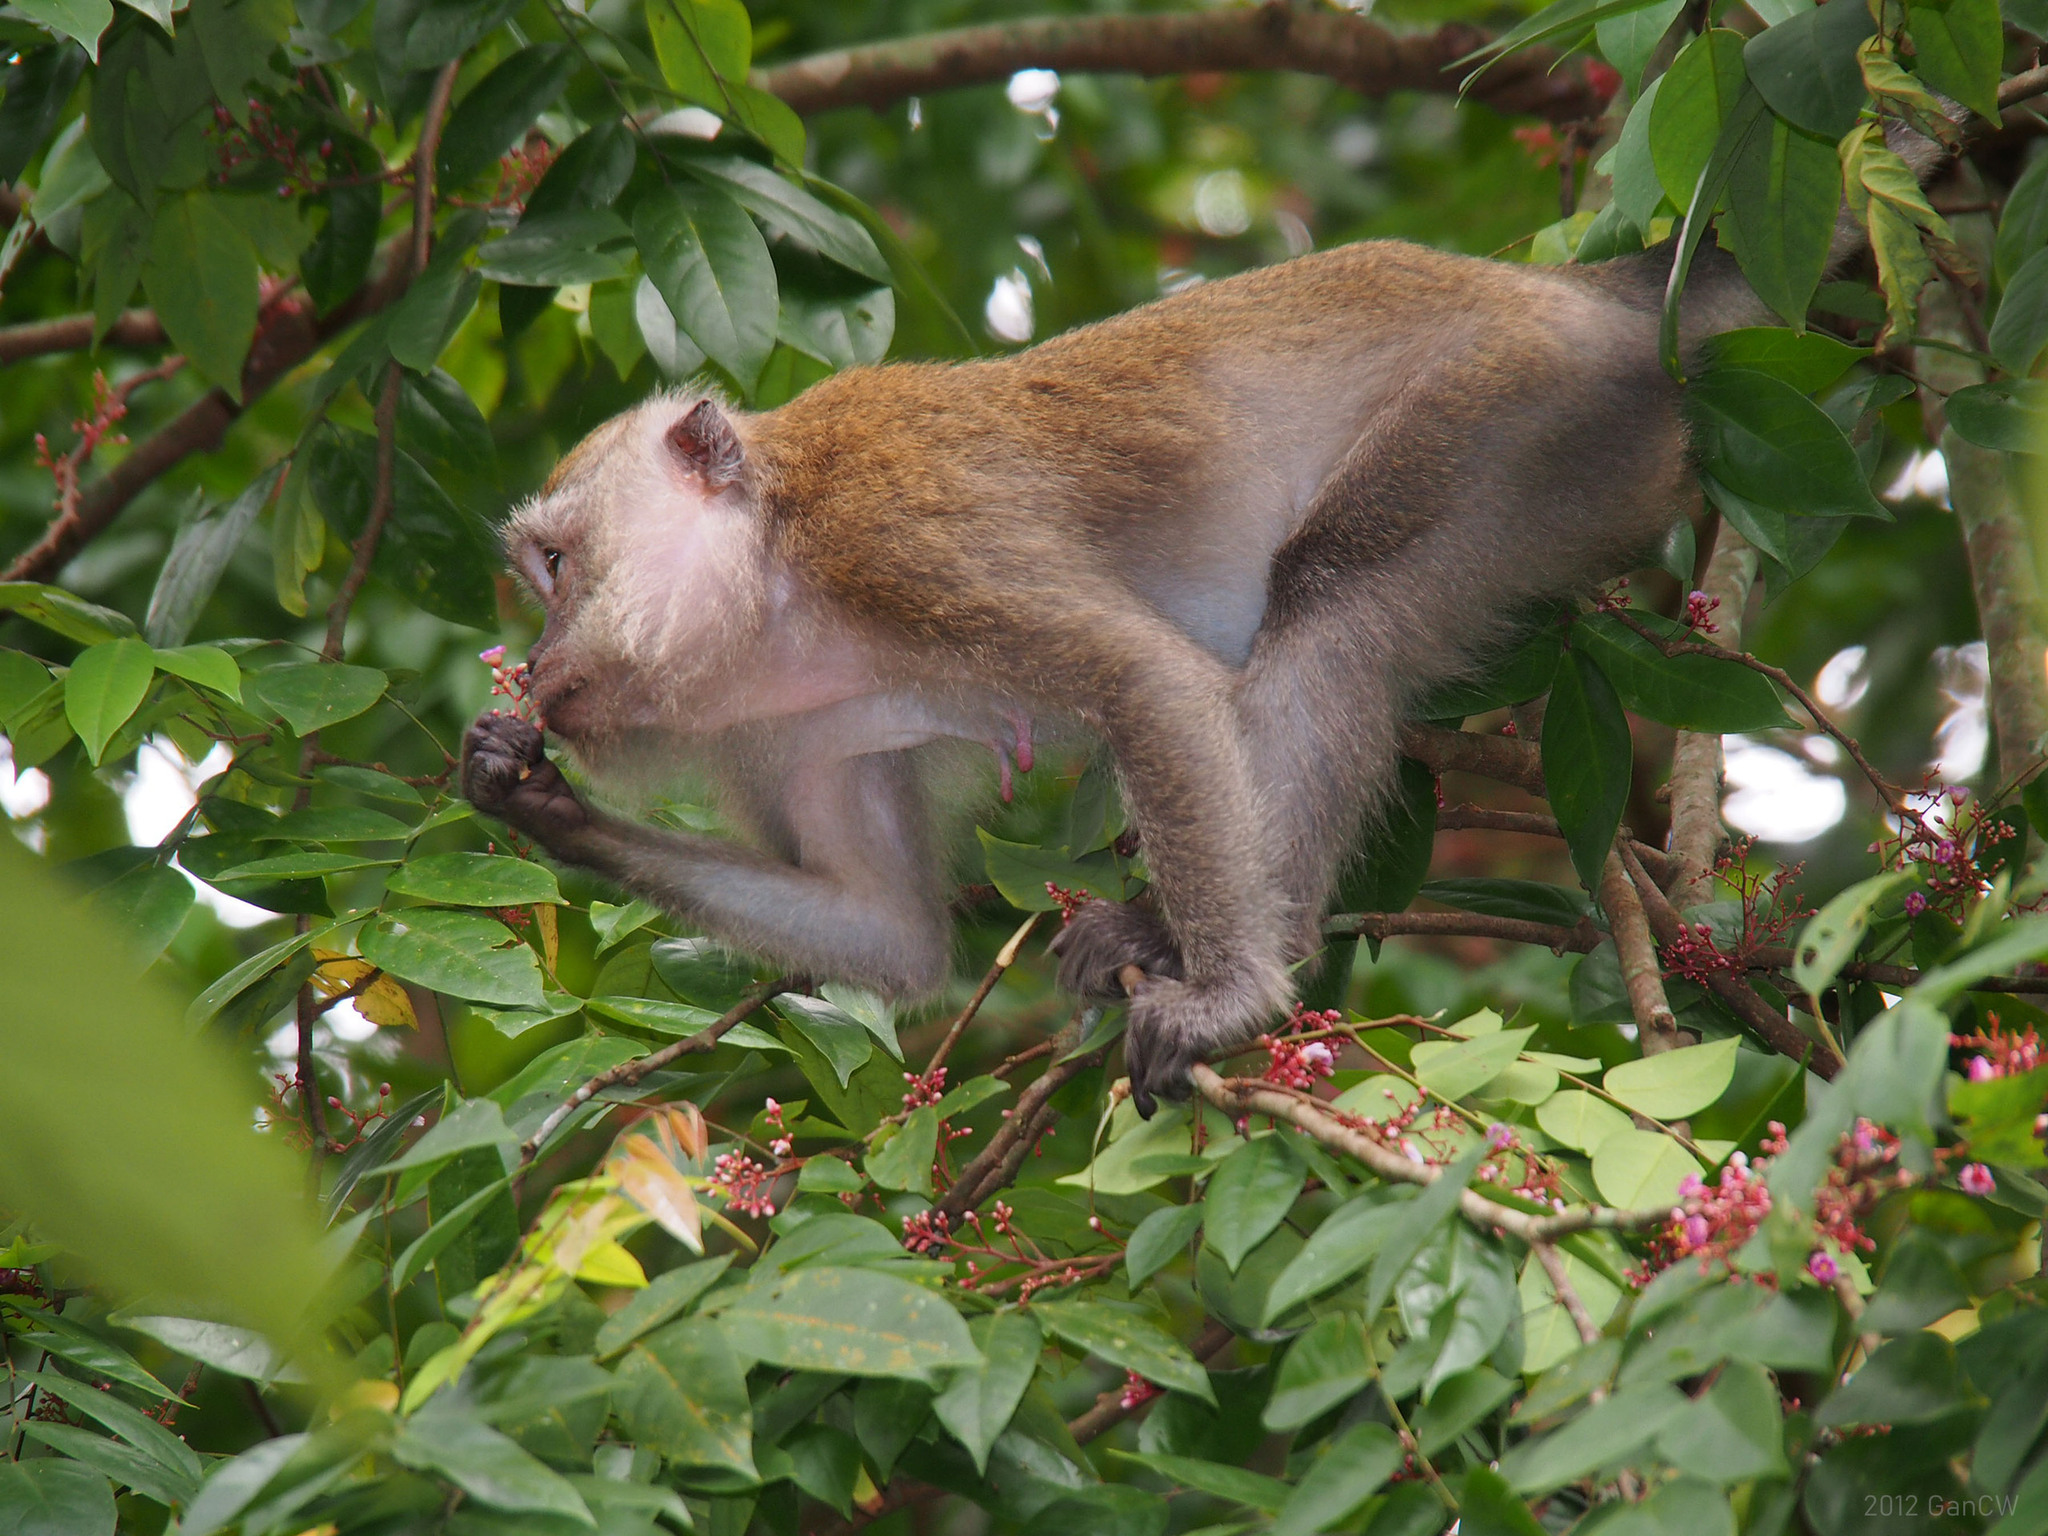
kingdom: Animalia
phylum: Chordata
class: Mammalia
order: Primates
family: Cercopithecidae
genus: Macaca
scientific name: Macaca fascicularis
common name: Crab-eating macaque
